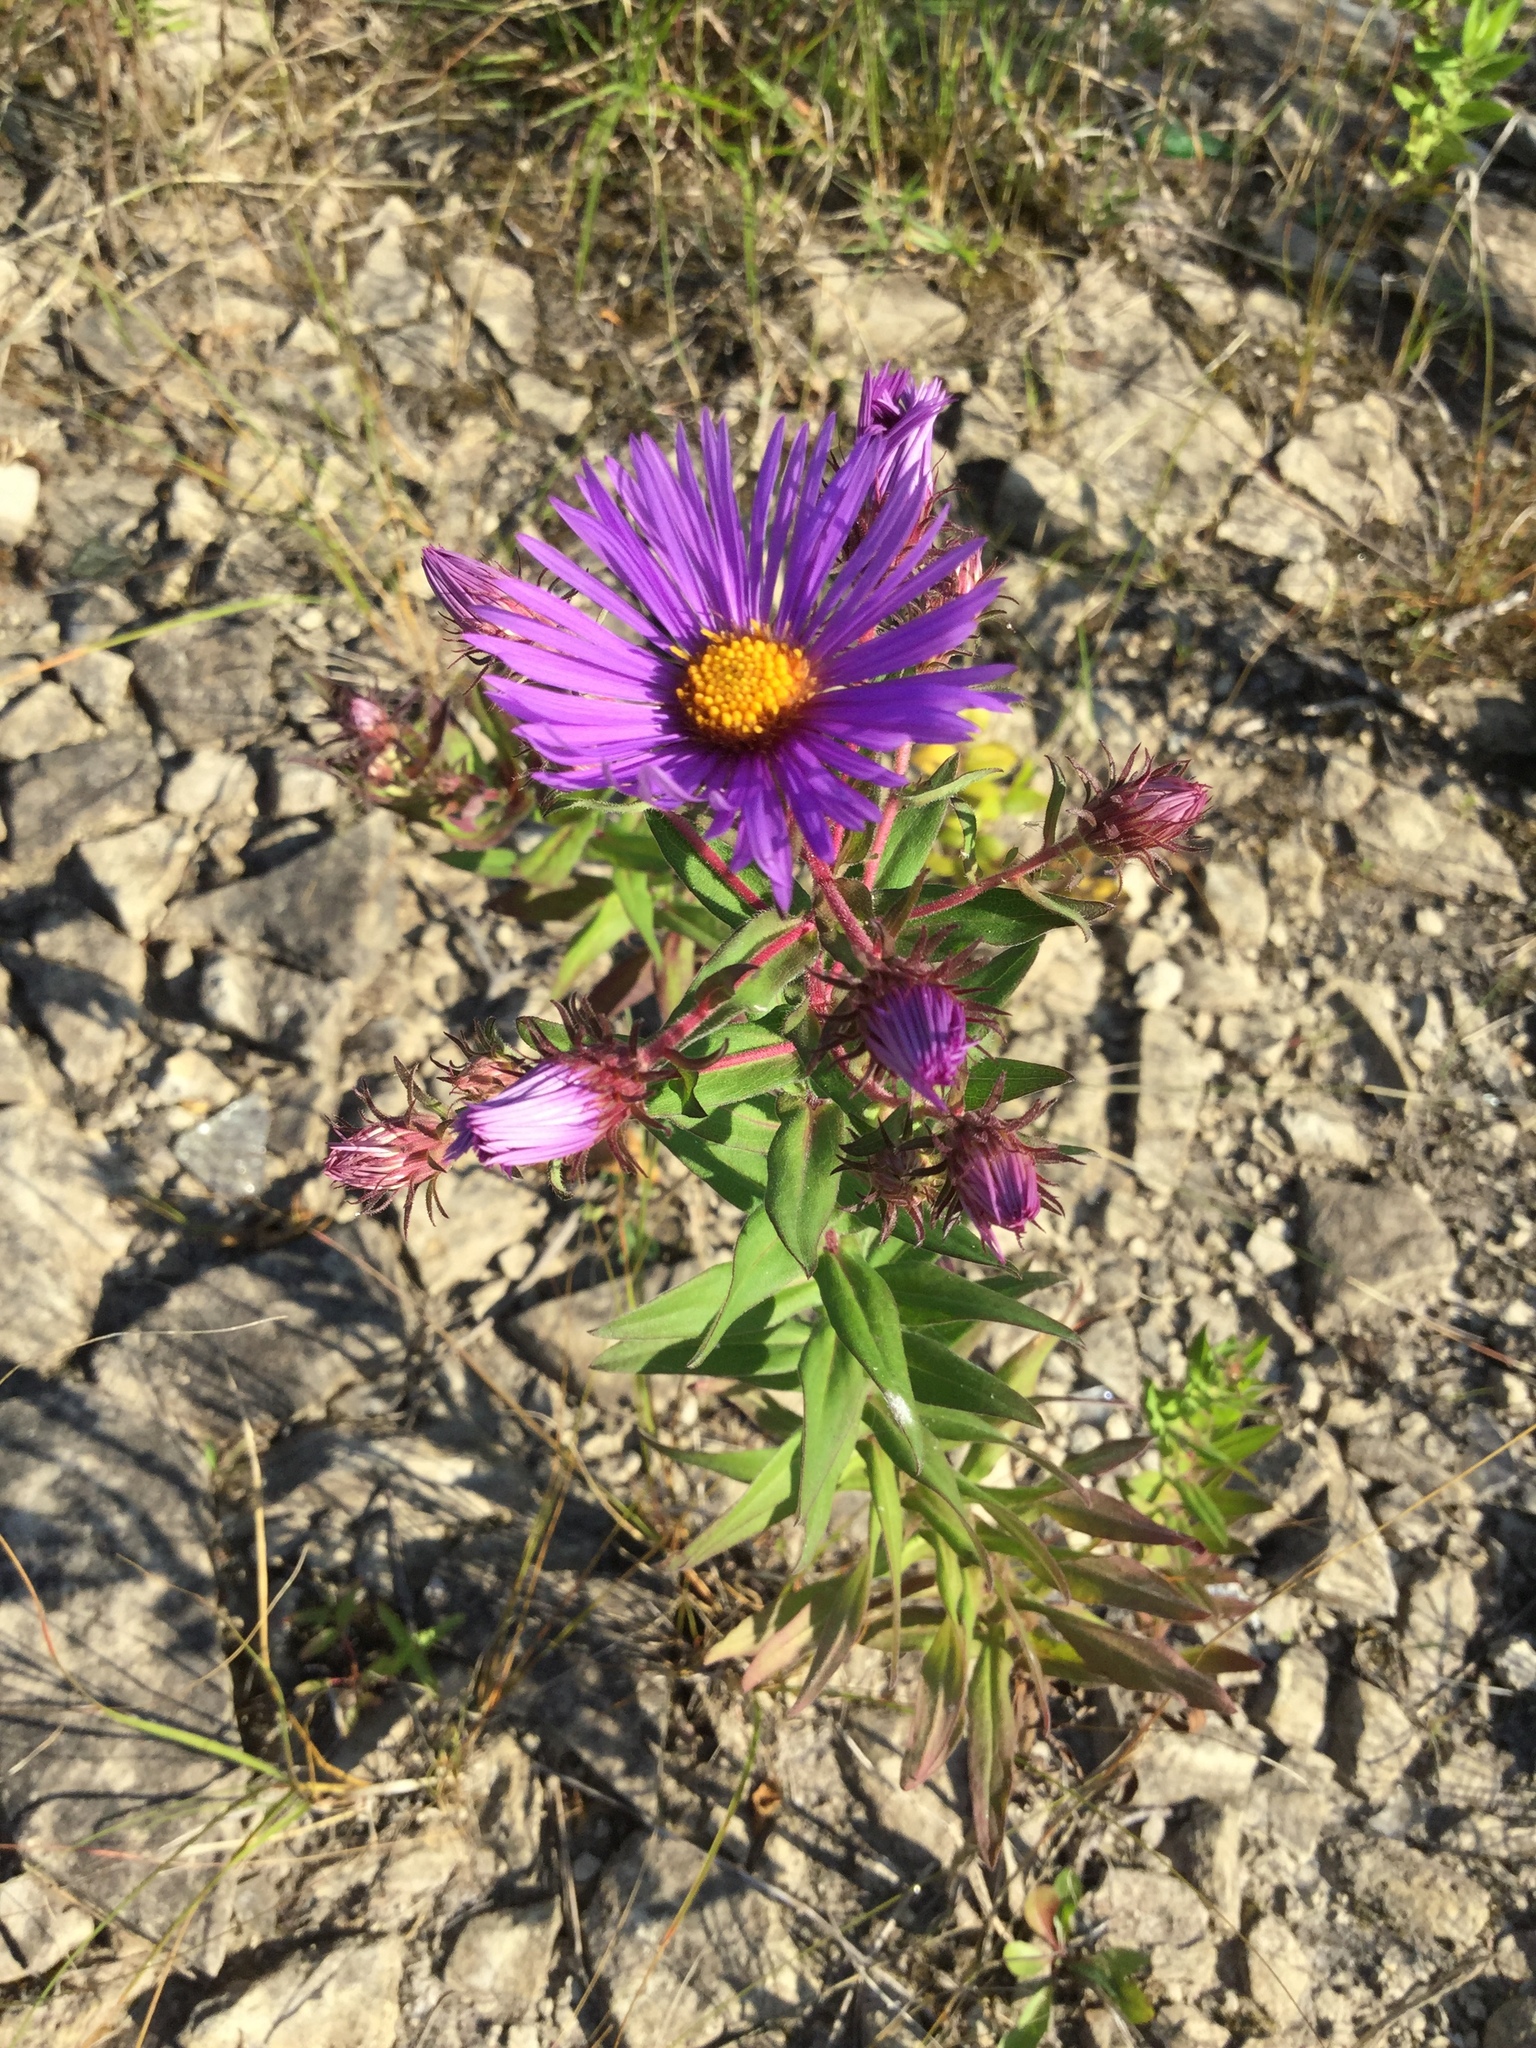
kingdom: Plantae
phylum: Tracheophyta
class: Magnoliopsida
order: Asterales
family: Asteraceae
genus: Symphyotrichum
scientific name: Symphyotrichum novae-angliae
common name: Michaelmas daisy
